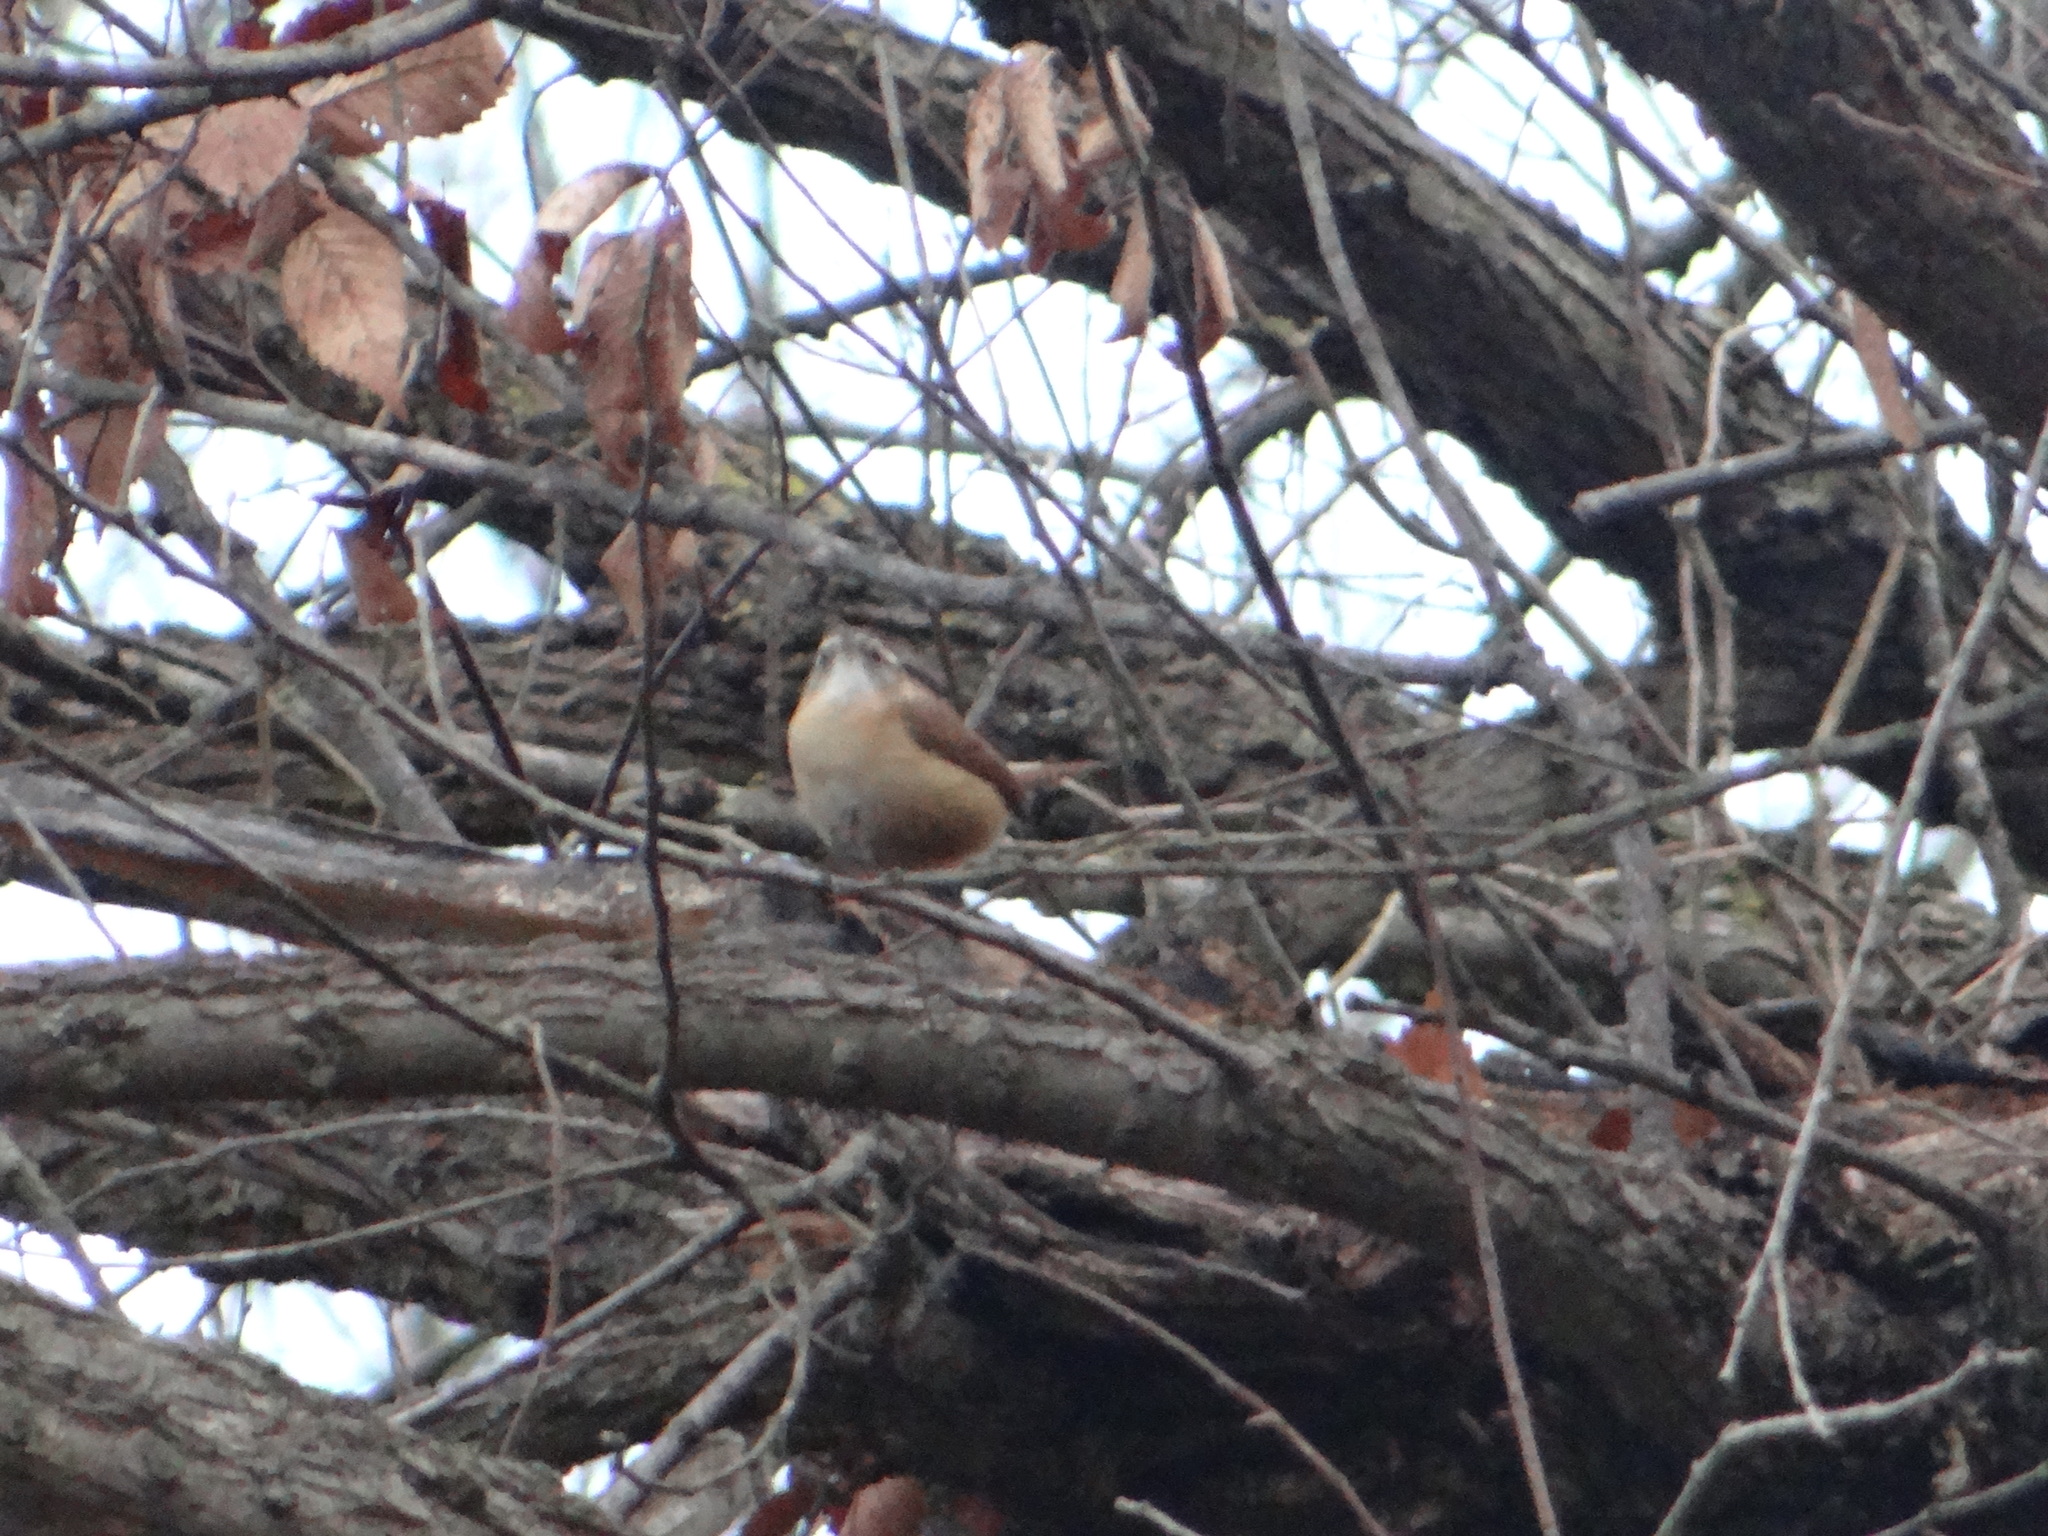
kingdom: Animalia
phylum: Chordata
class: Aves
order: Passeriformes
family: Troglodytidae
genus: Thryothorus
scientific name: Thryothorus ludovicianus
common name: Carolina wren
